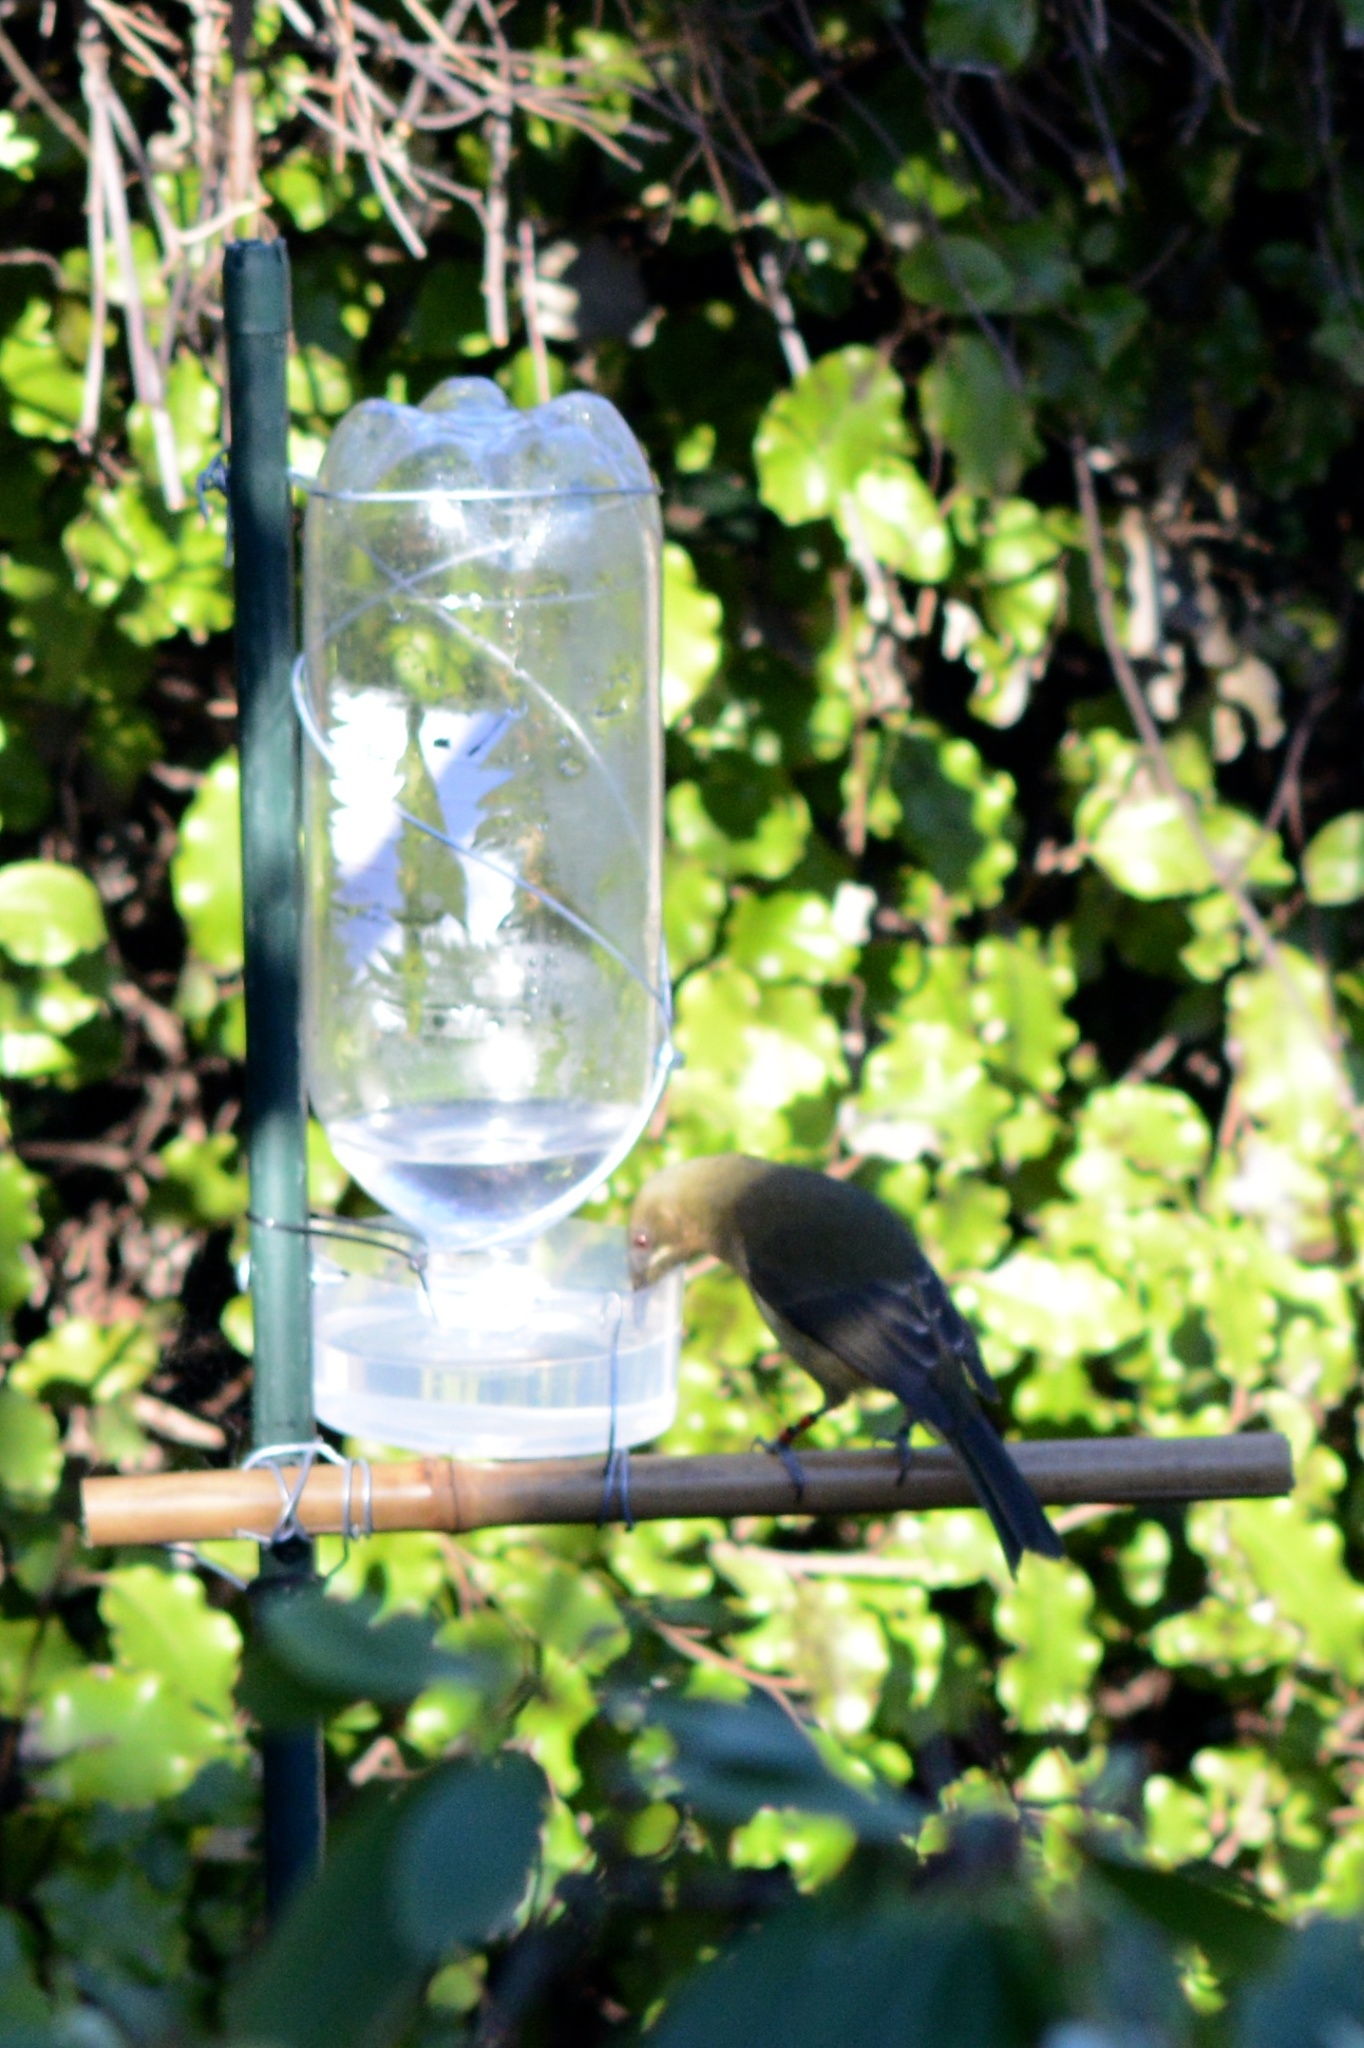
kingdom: Animalia
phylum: Chordata
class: Aves
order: Passeriformes
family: Meliphagidae
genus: Anthornis
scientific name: Anthornis melanura
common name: New zealand bellbird
